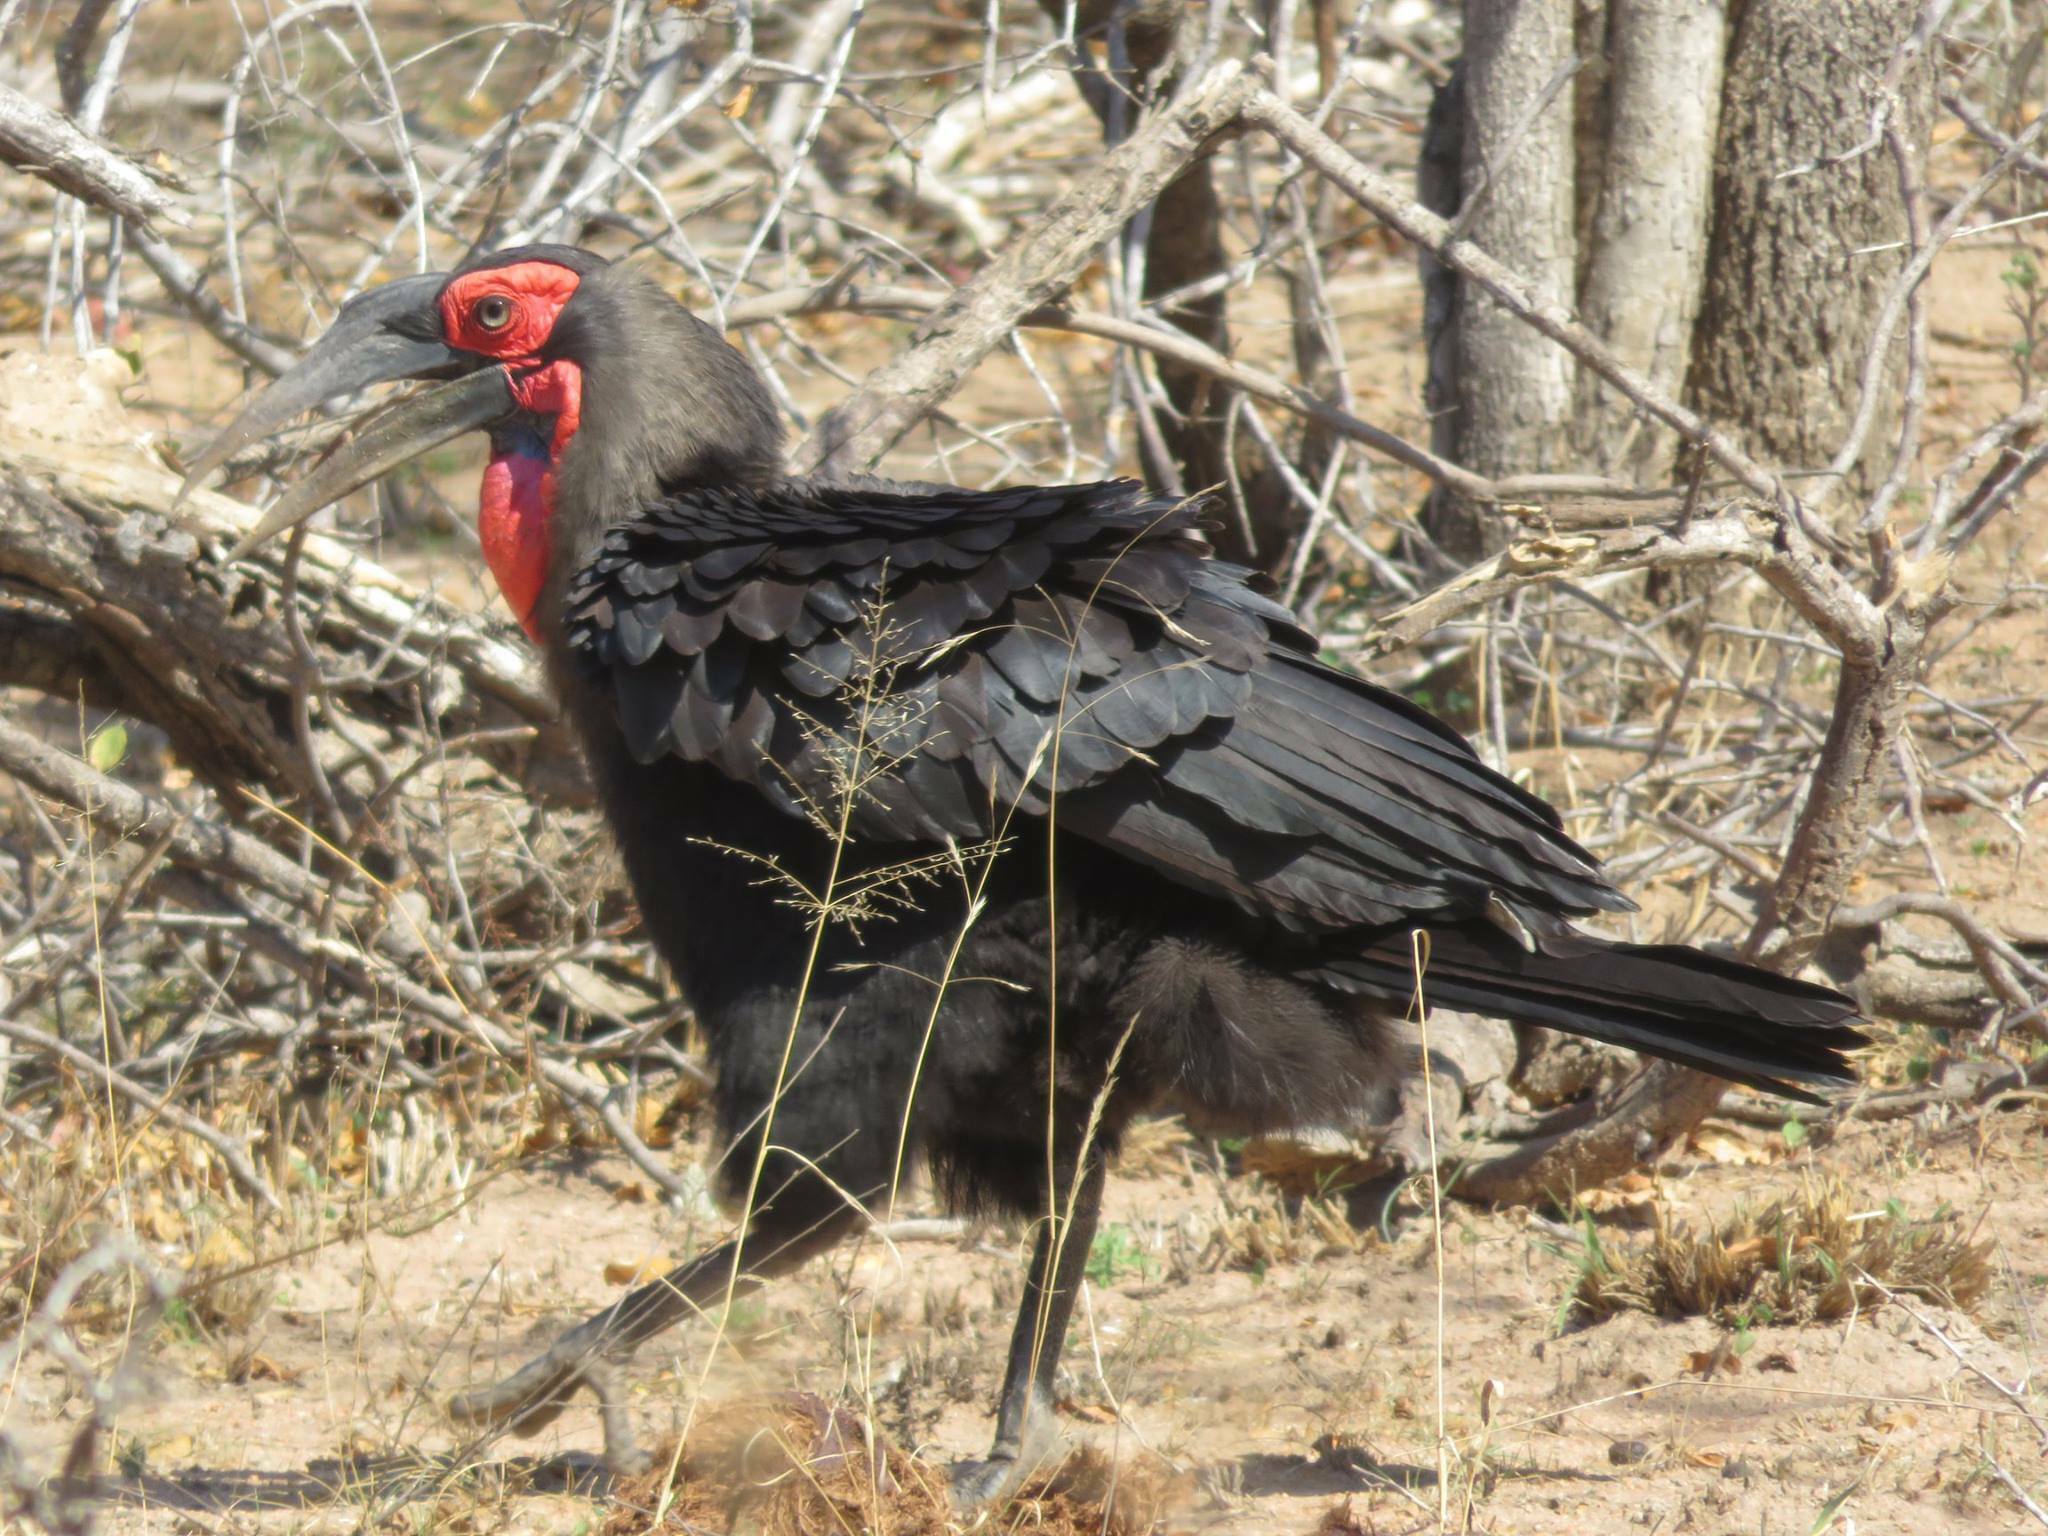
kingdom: Animalia
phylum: Chordata
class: Aves
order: Bucerotiformes
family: Bucorvidae
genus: Bucorvus
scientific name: Bucorvus leadbeateri
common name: Southern ground-hornbill
